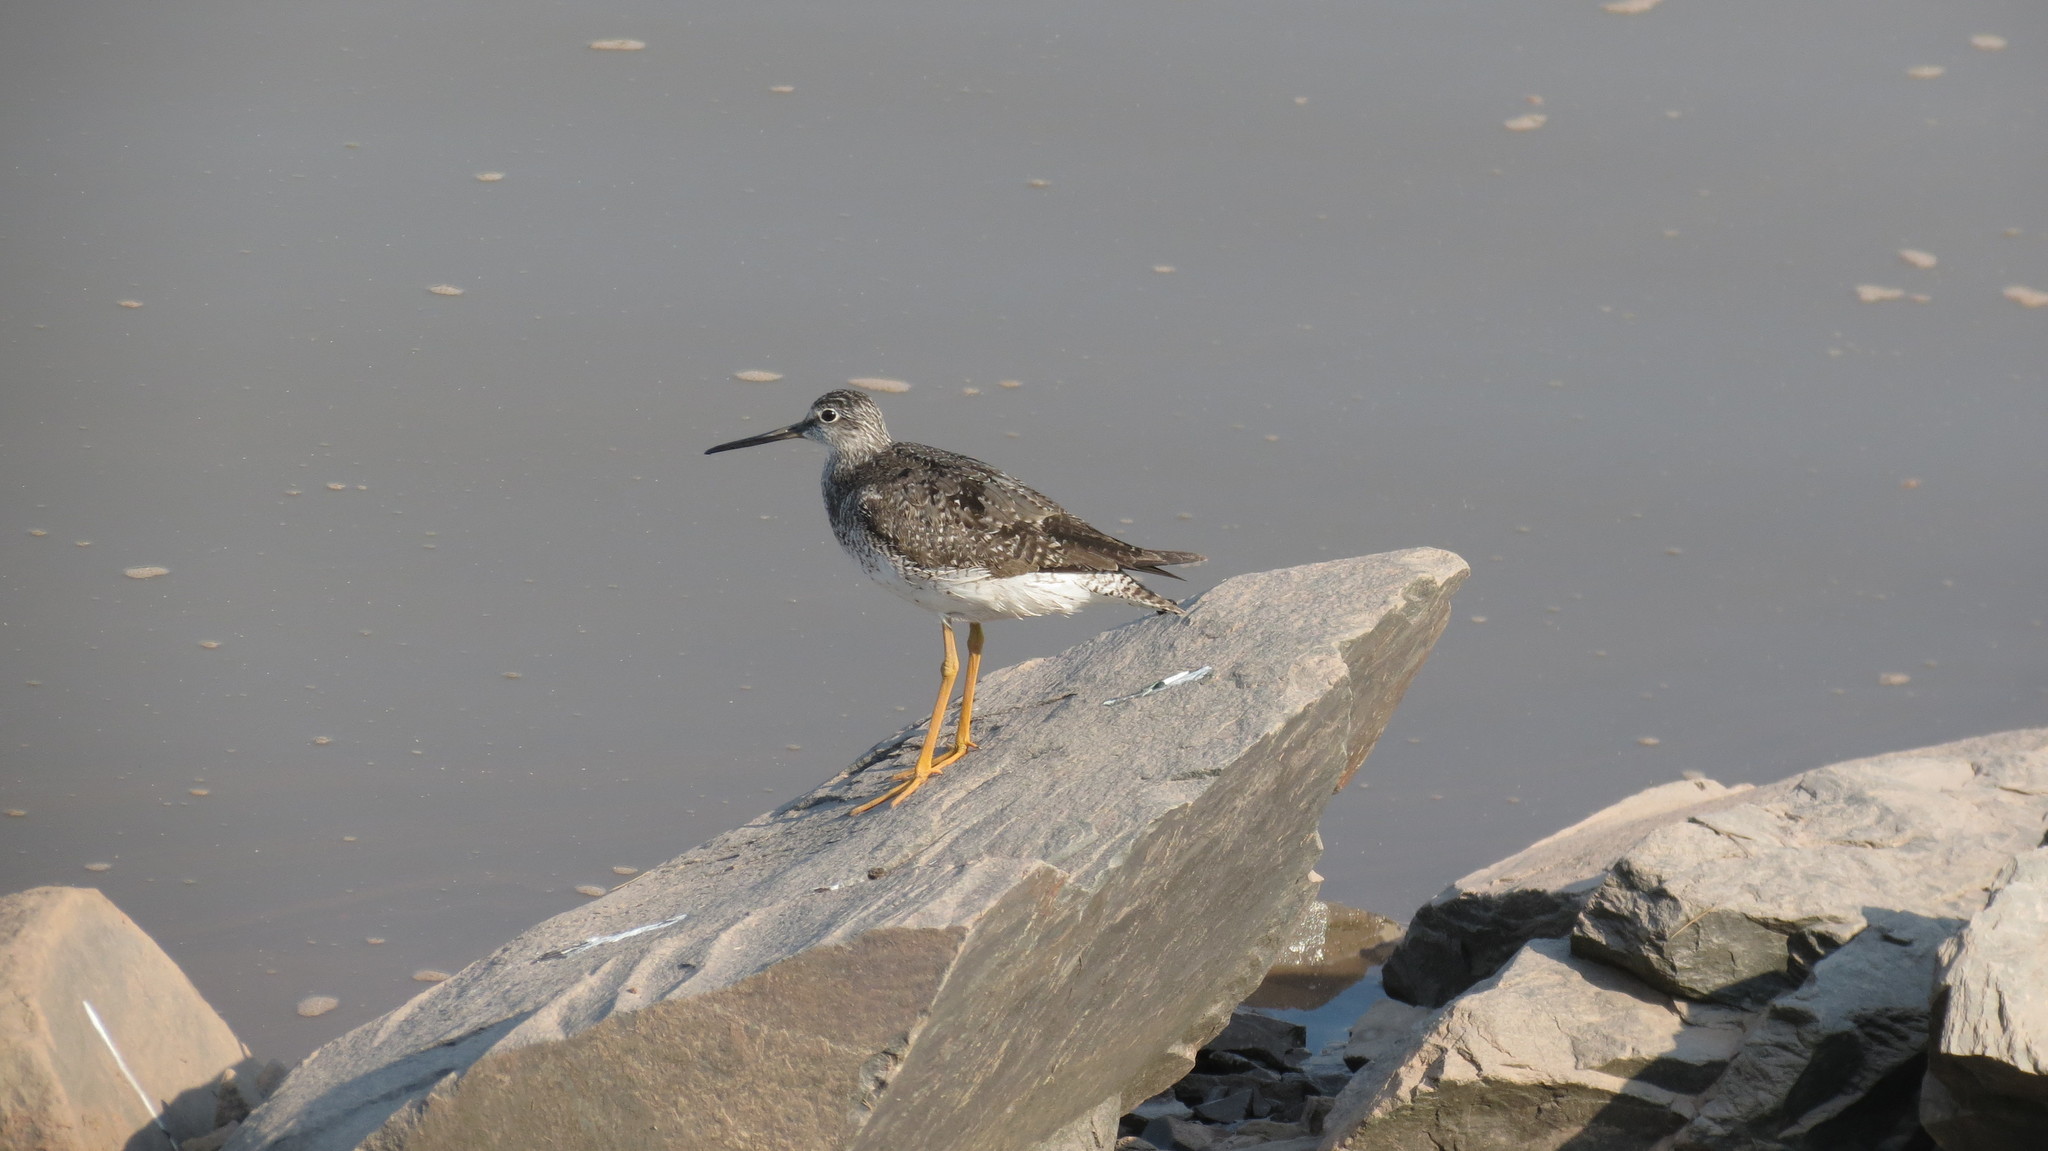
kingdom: Animalia
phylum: Chordata
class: Aves
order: Charadriiformes
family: Scolopacidae
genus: Tringa
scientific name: Tringa melanoleuca
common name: Greater yellowlegs
